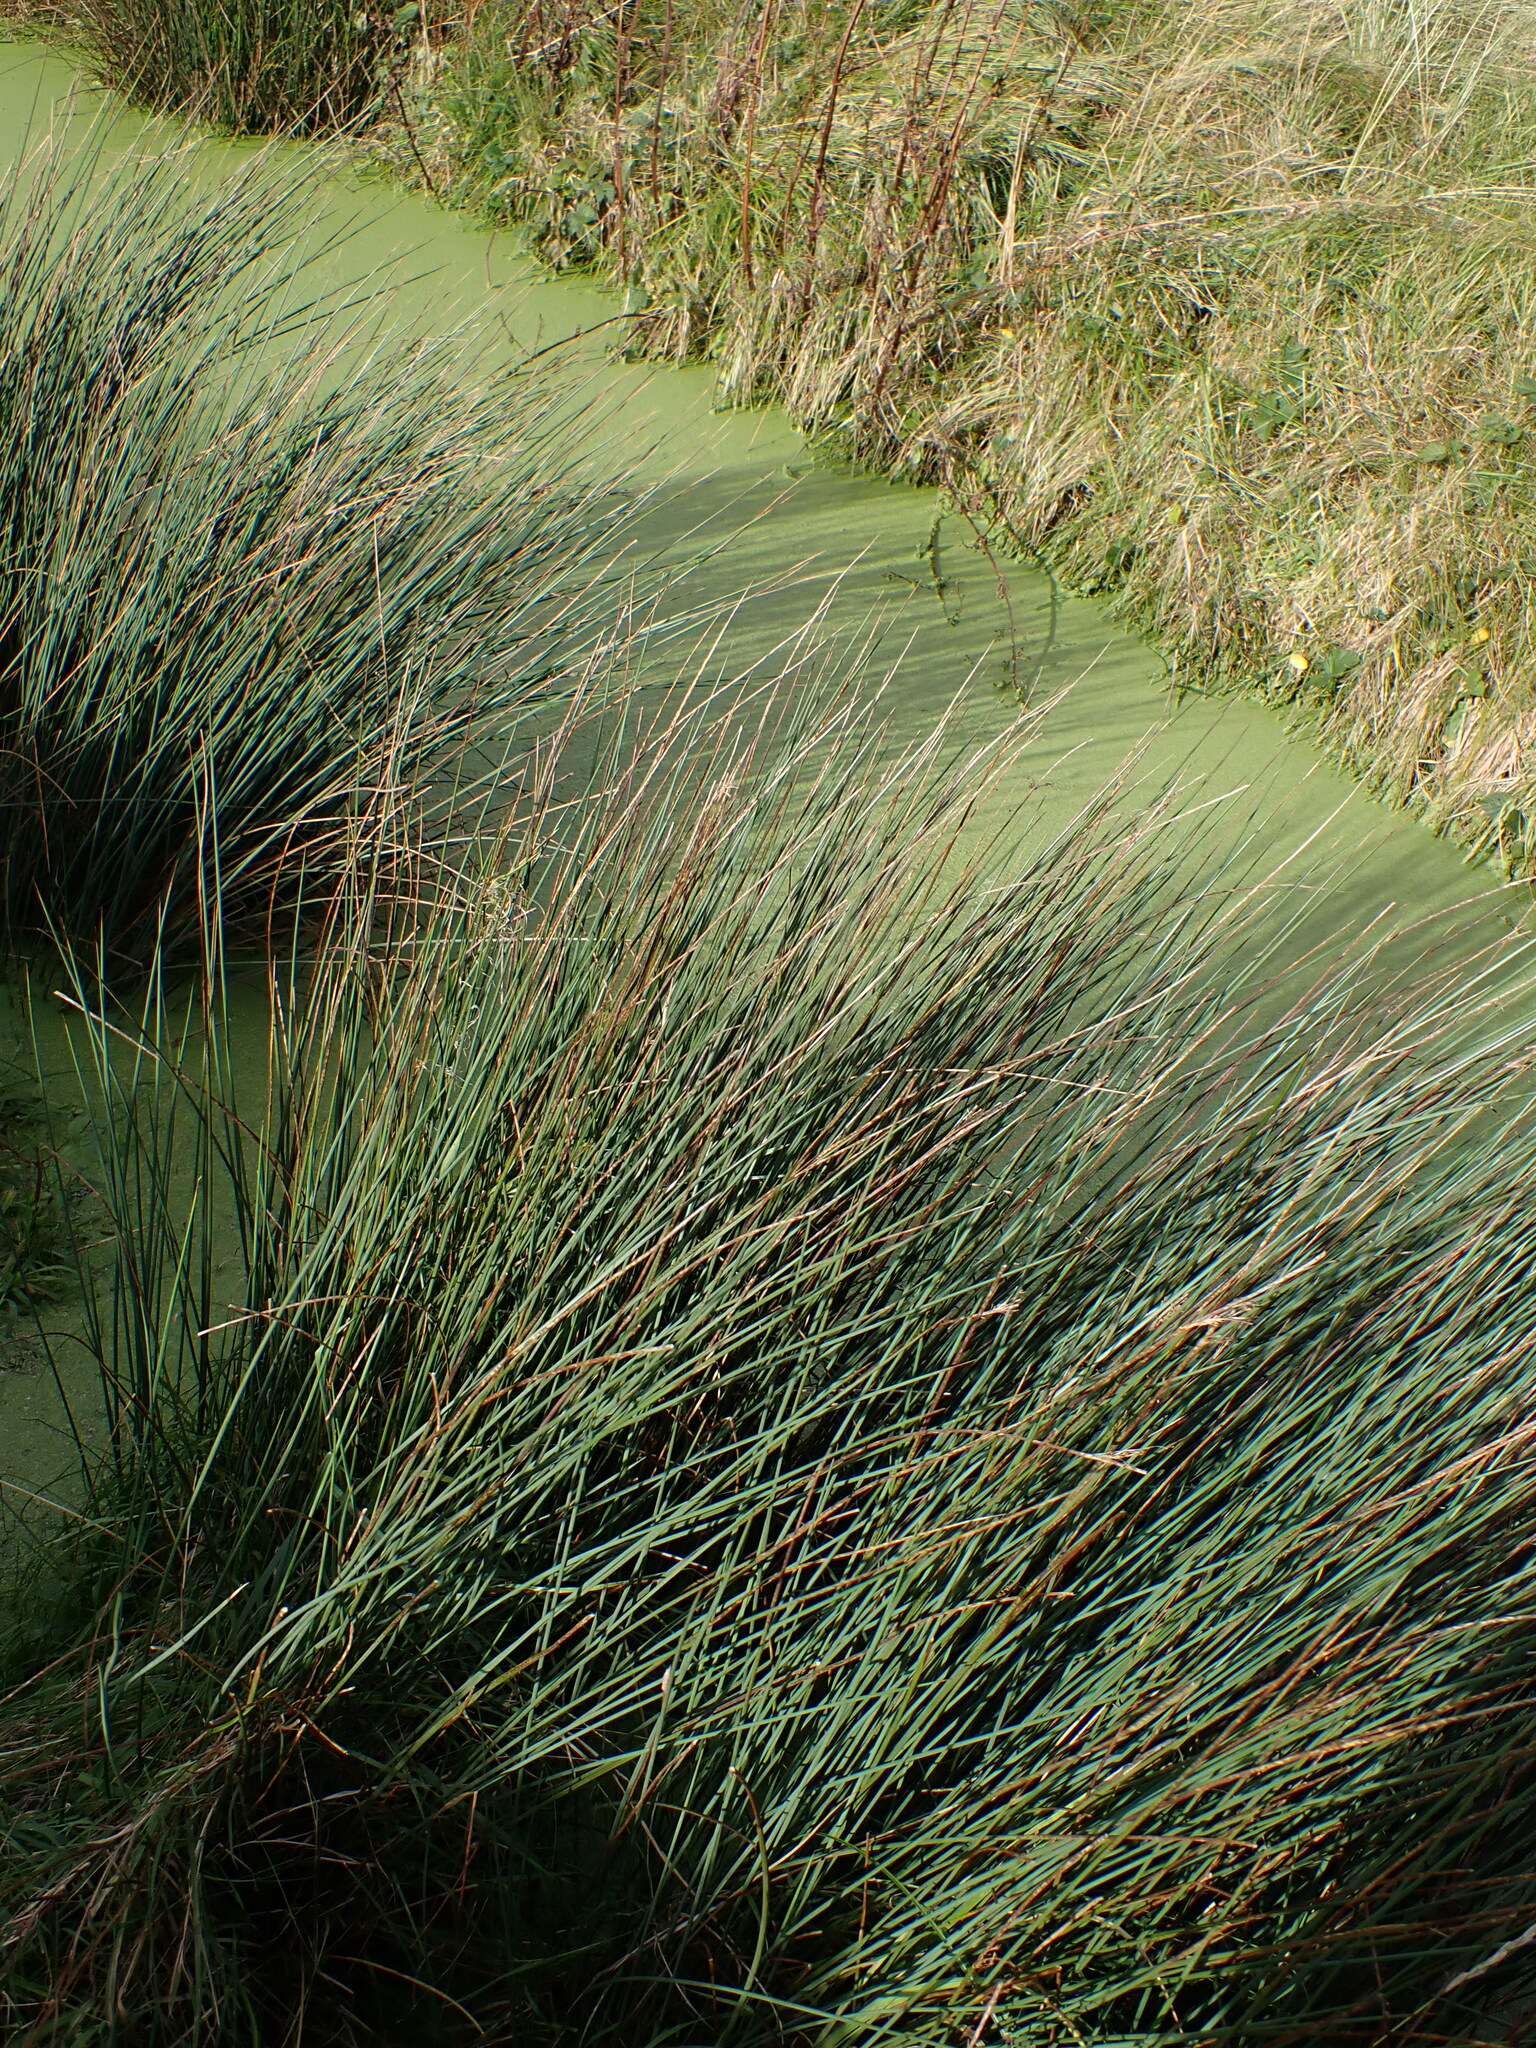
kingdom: Plantae
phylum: Tracheophyta
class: Liliopsida
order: Poales
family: Juncaceae
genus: Juncus
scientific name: Juncus inflexus
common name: Hard rush
